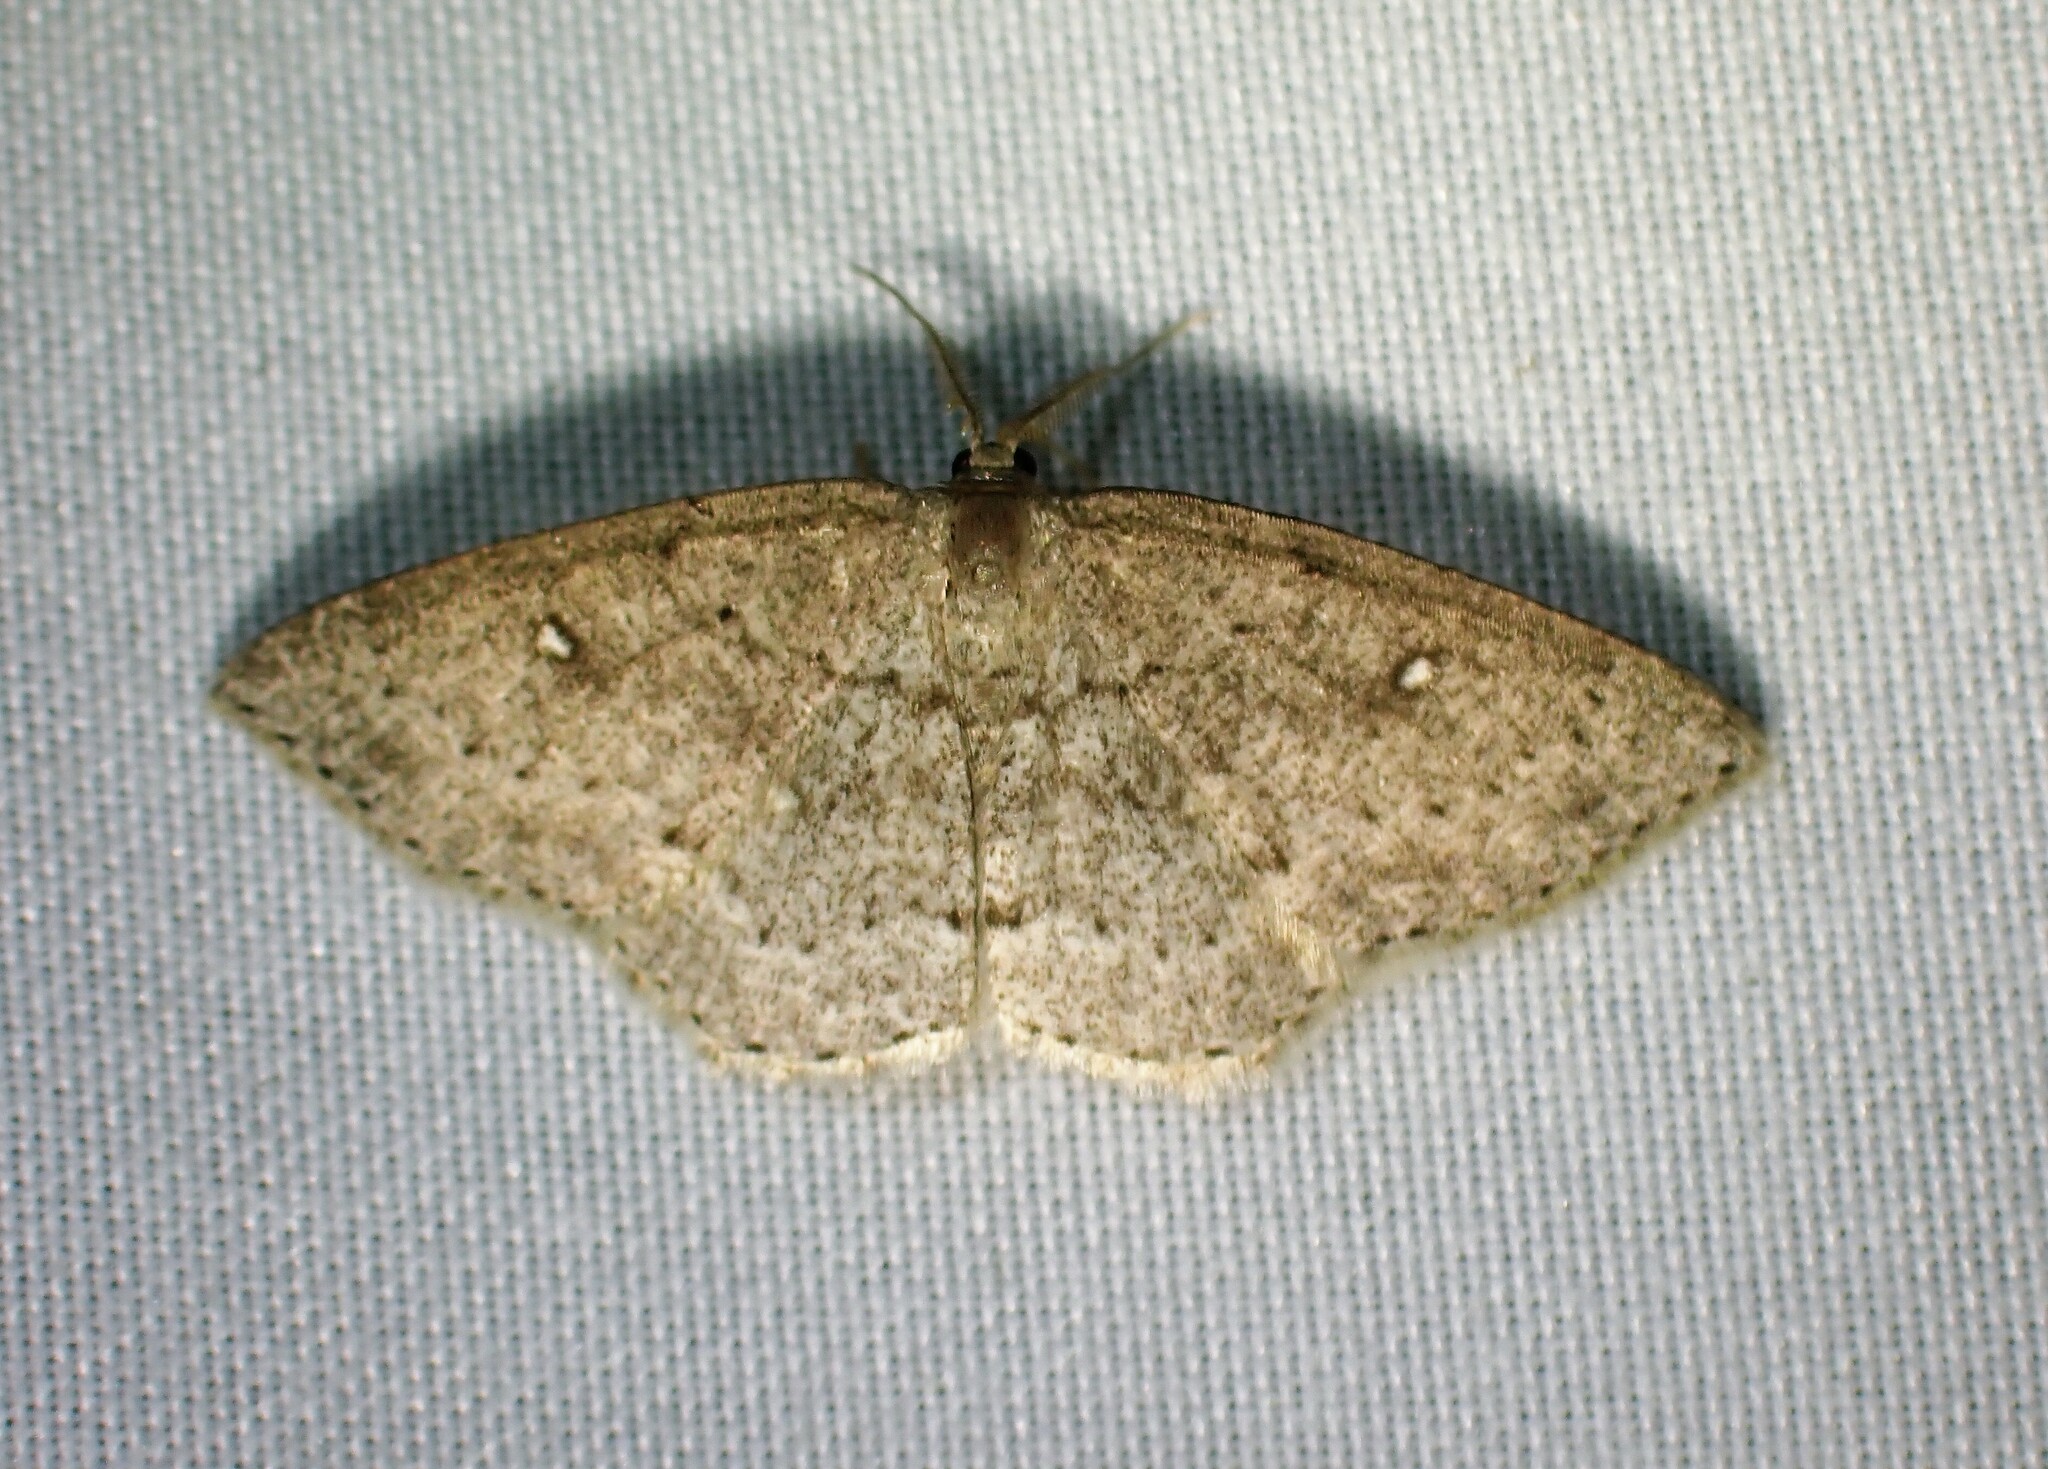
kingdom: Animalia
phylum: Arthropoda
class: Insecta
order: Lepidoptera
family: Geometridae
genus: Cyclophora
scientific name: Cyclophora pendulinaria
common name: Sweet fern geometer
